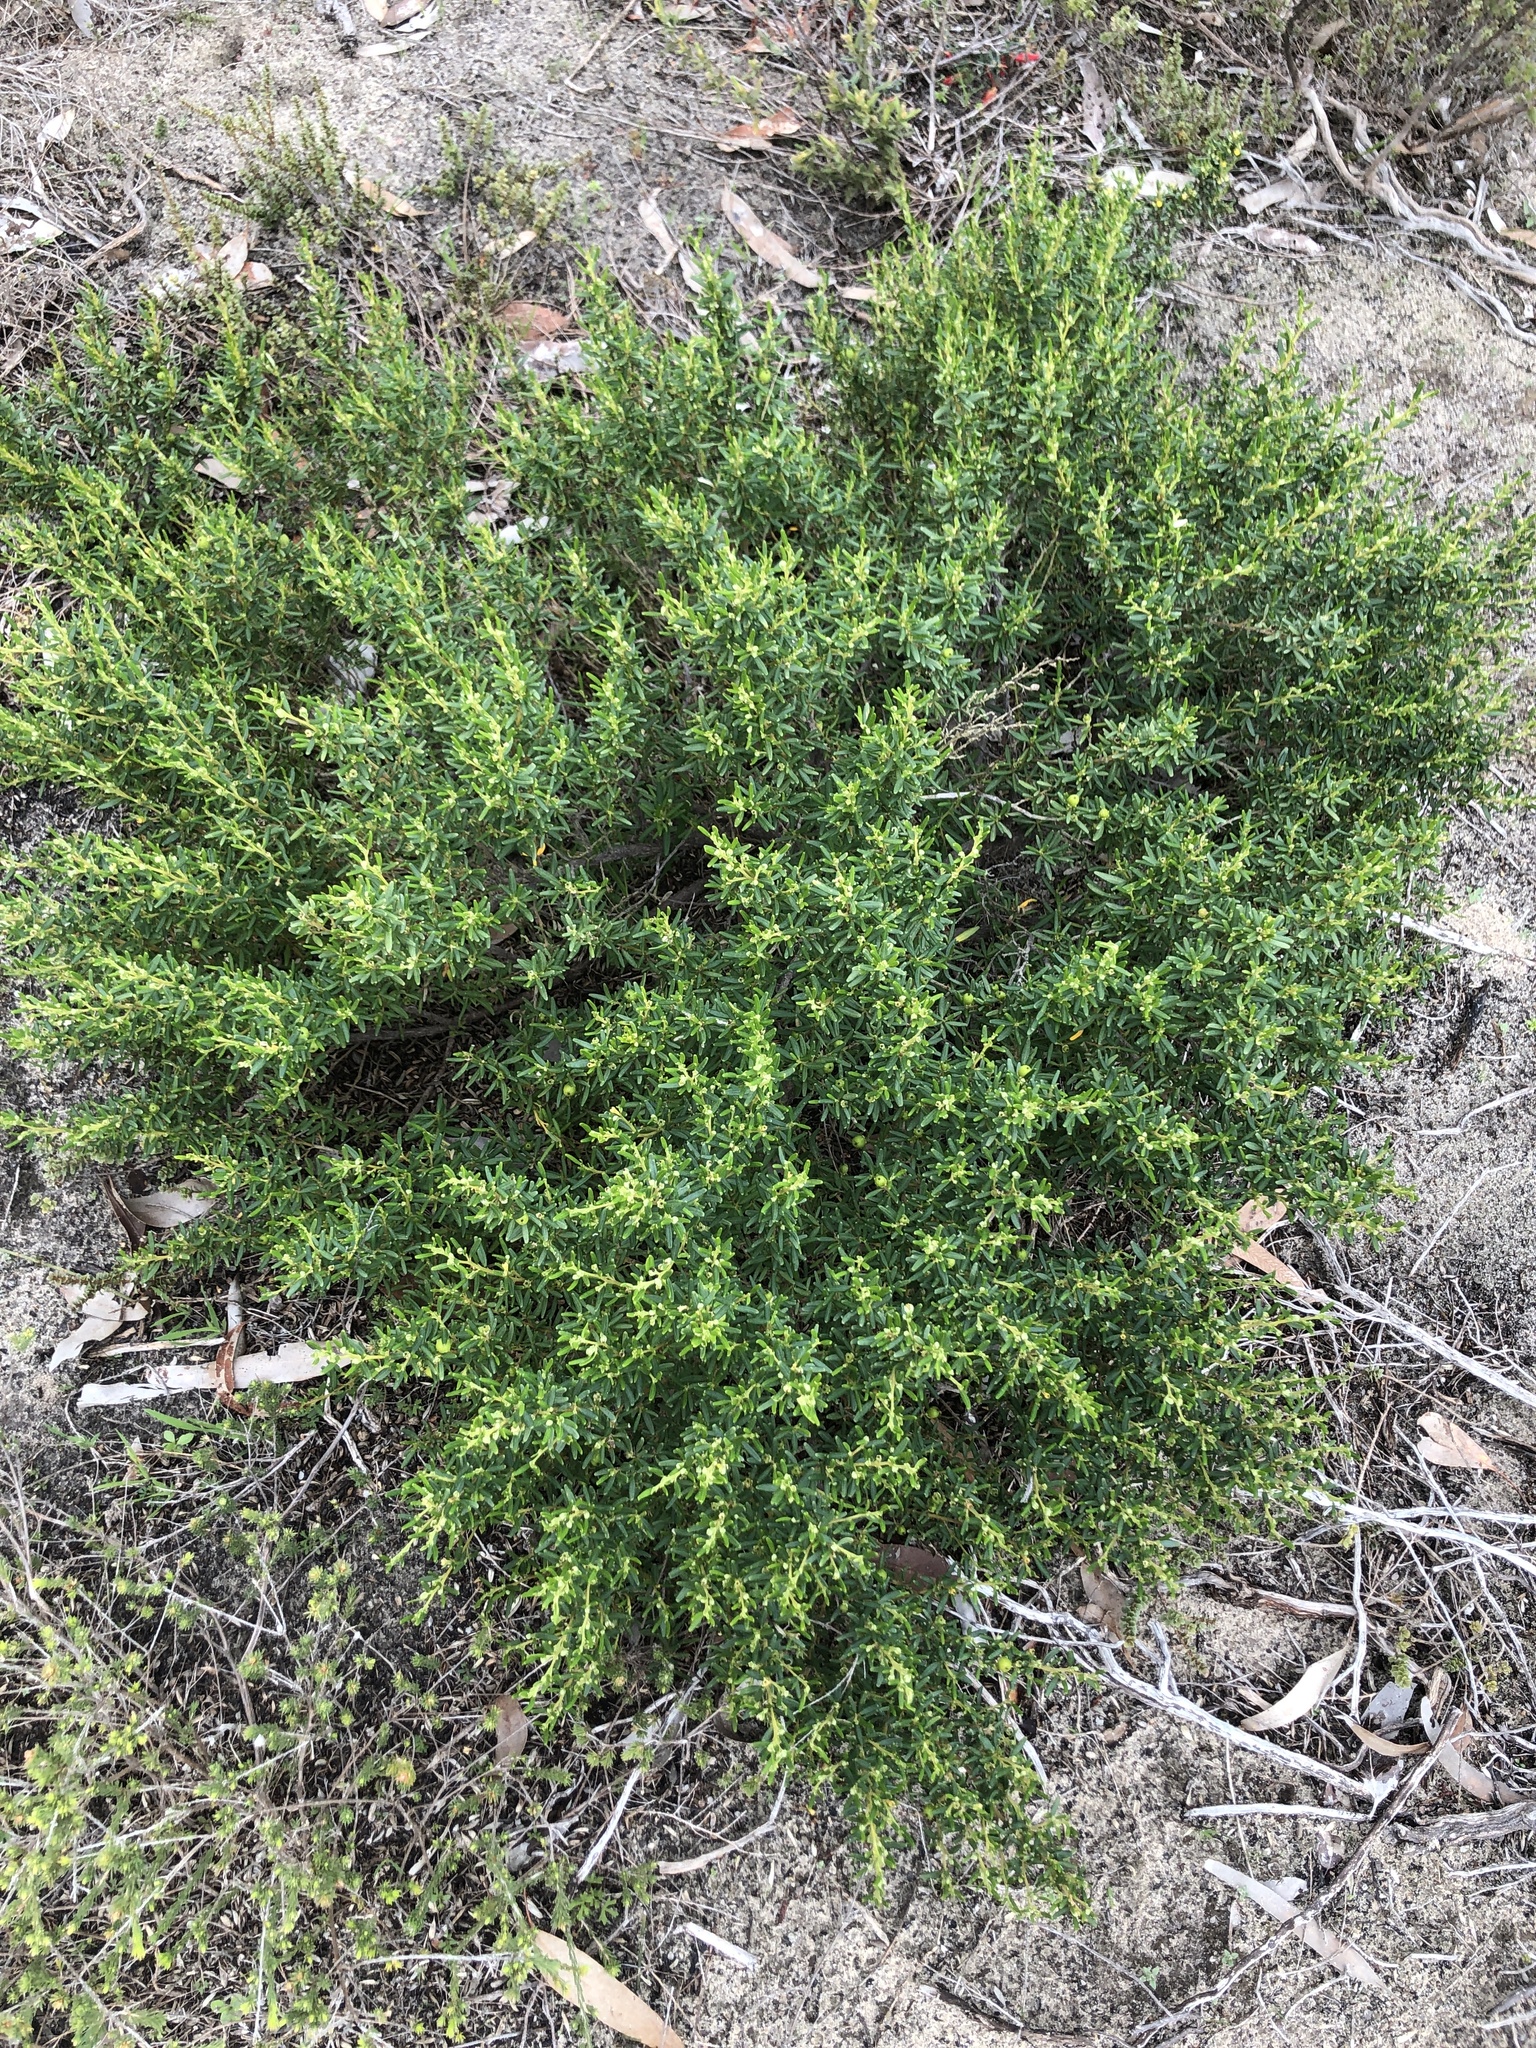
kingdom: Plantae
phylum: Tracheophyta
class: Magnoliopsida
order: Malpighiales
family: Euphorbiaceae
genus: Beyeria
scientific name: Beyeria lechenaultii
